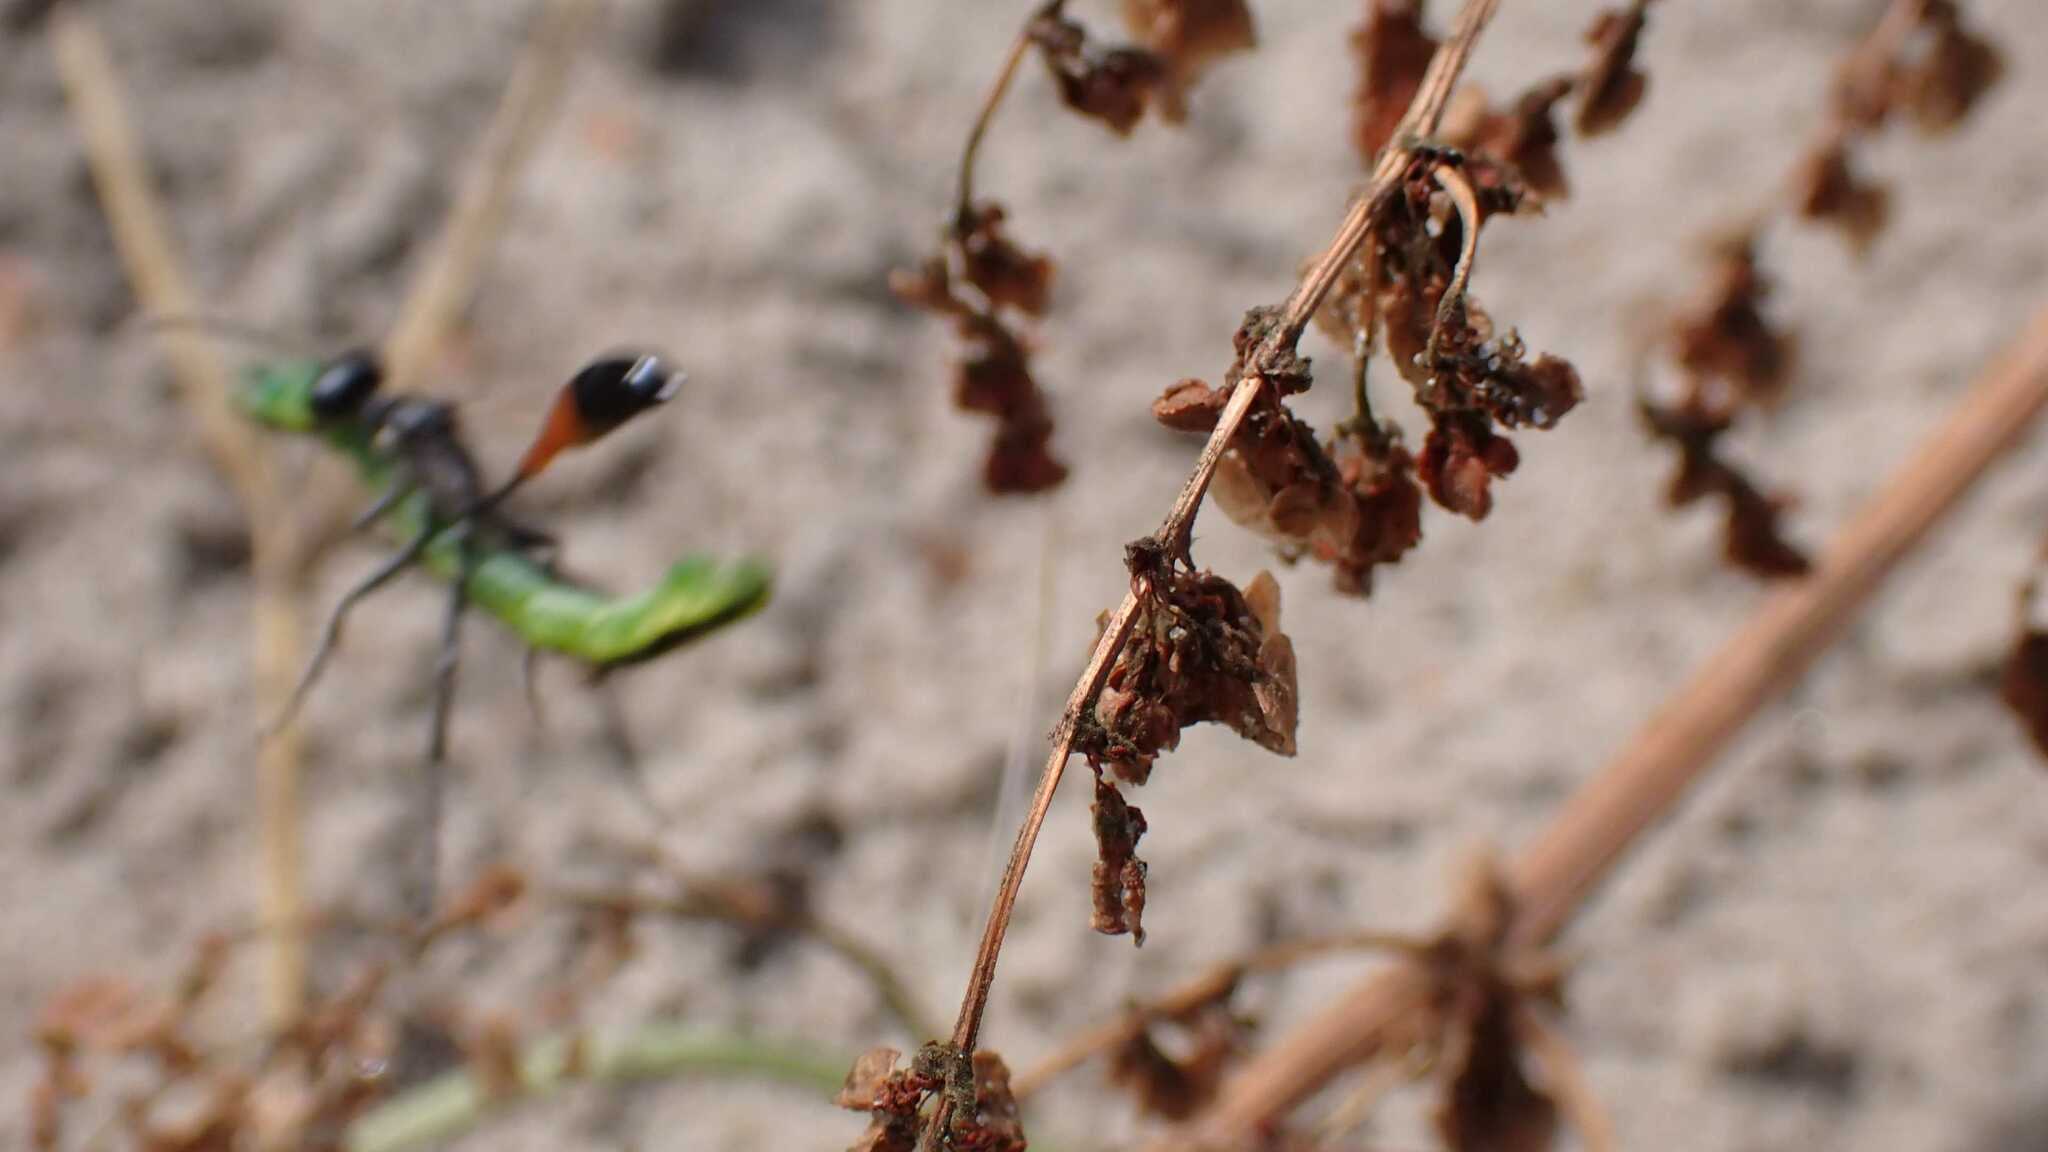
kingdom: Animalia
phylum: Arthropoda
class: Insecta
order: Hymenoptera
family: Sphecidae
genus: Ammophila
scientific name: Ammophila
